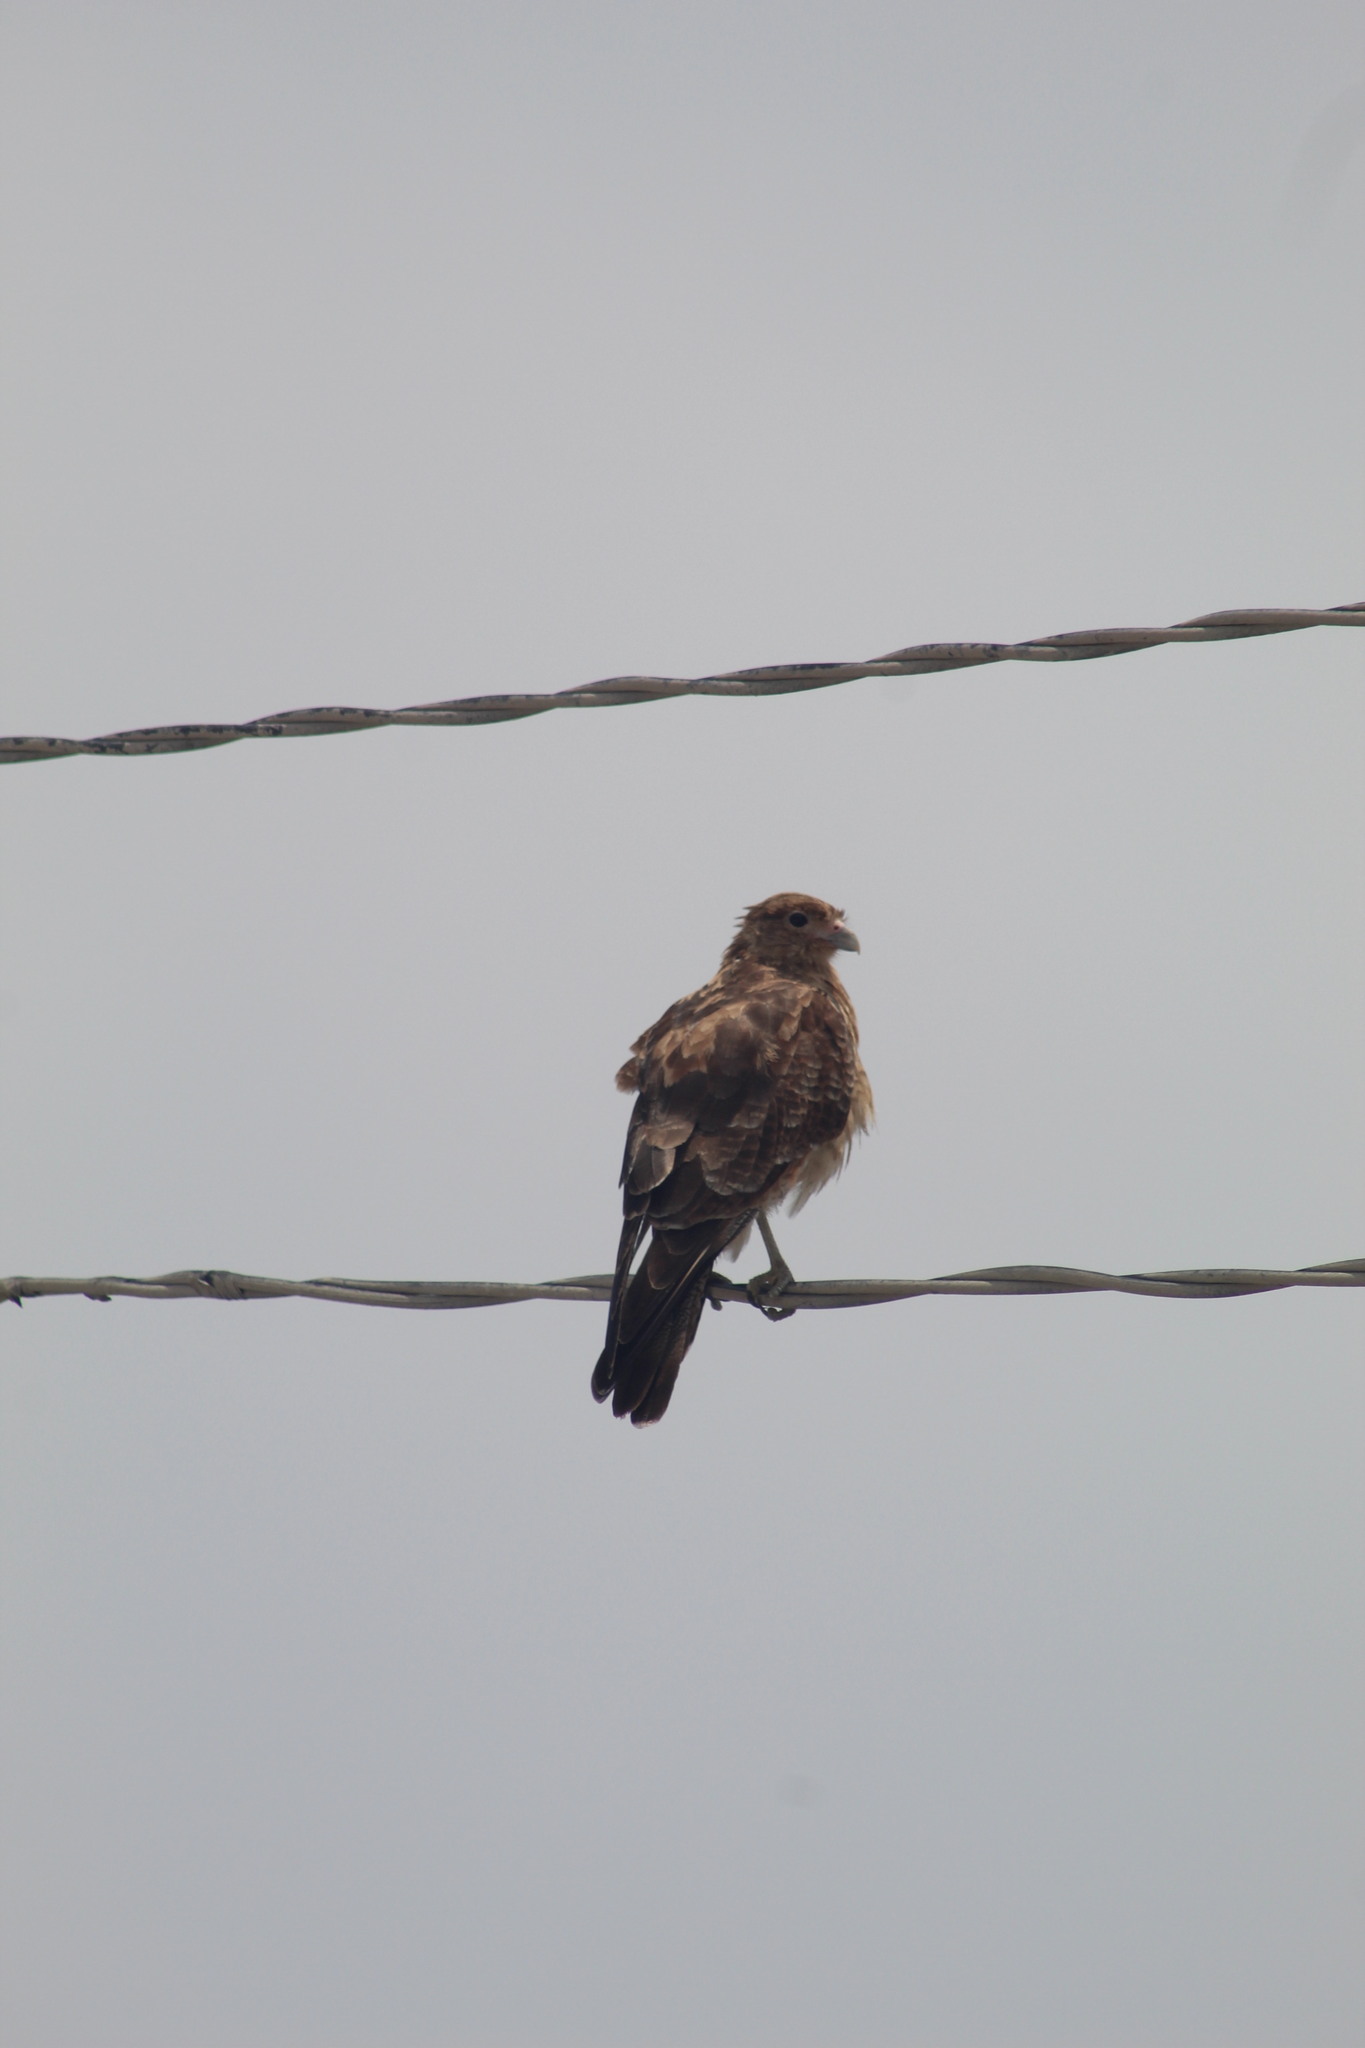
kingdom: Animalia
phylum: Chordata
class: Aves
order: Falconiformes
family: Falconidae
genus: Daptrius
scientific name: Daptrius
